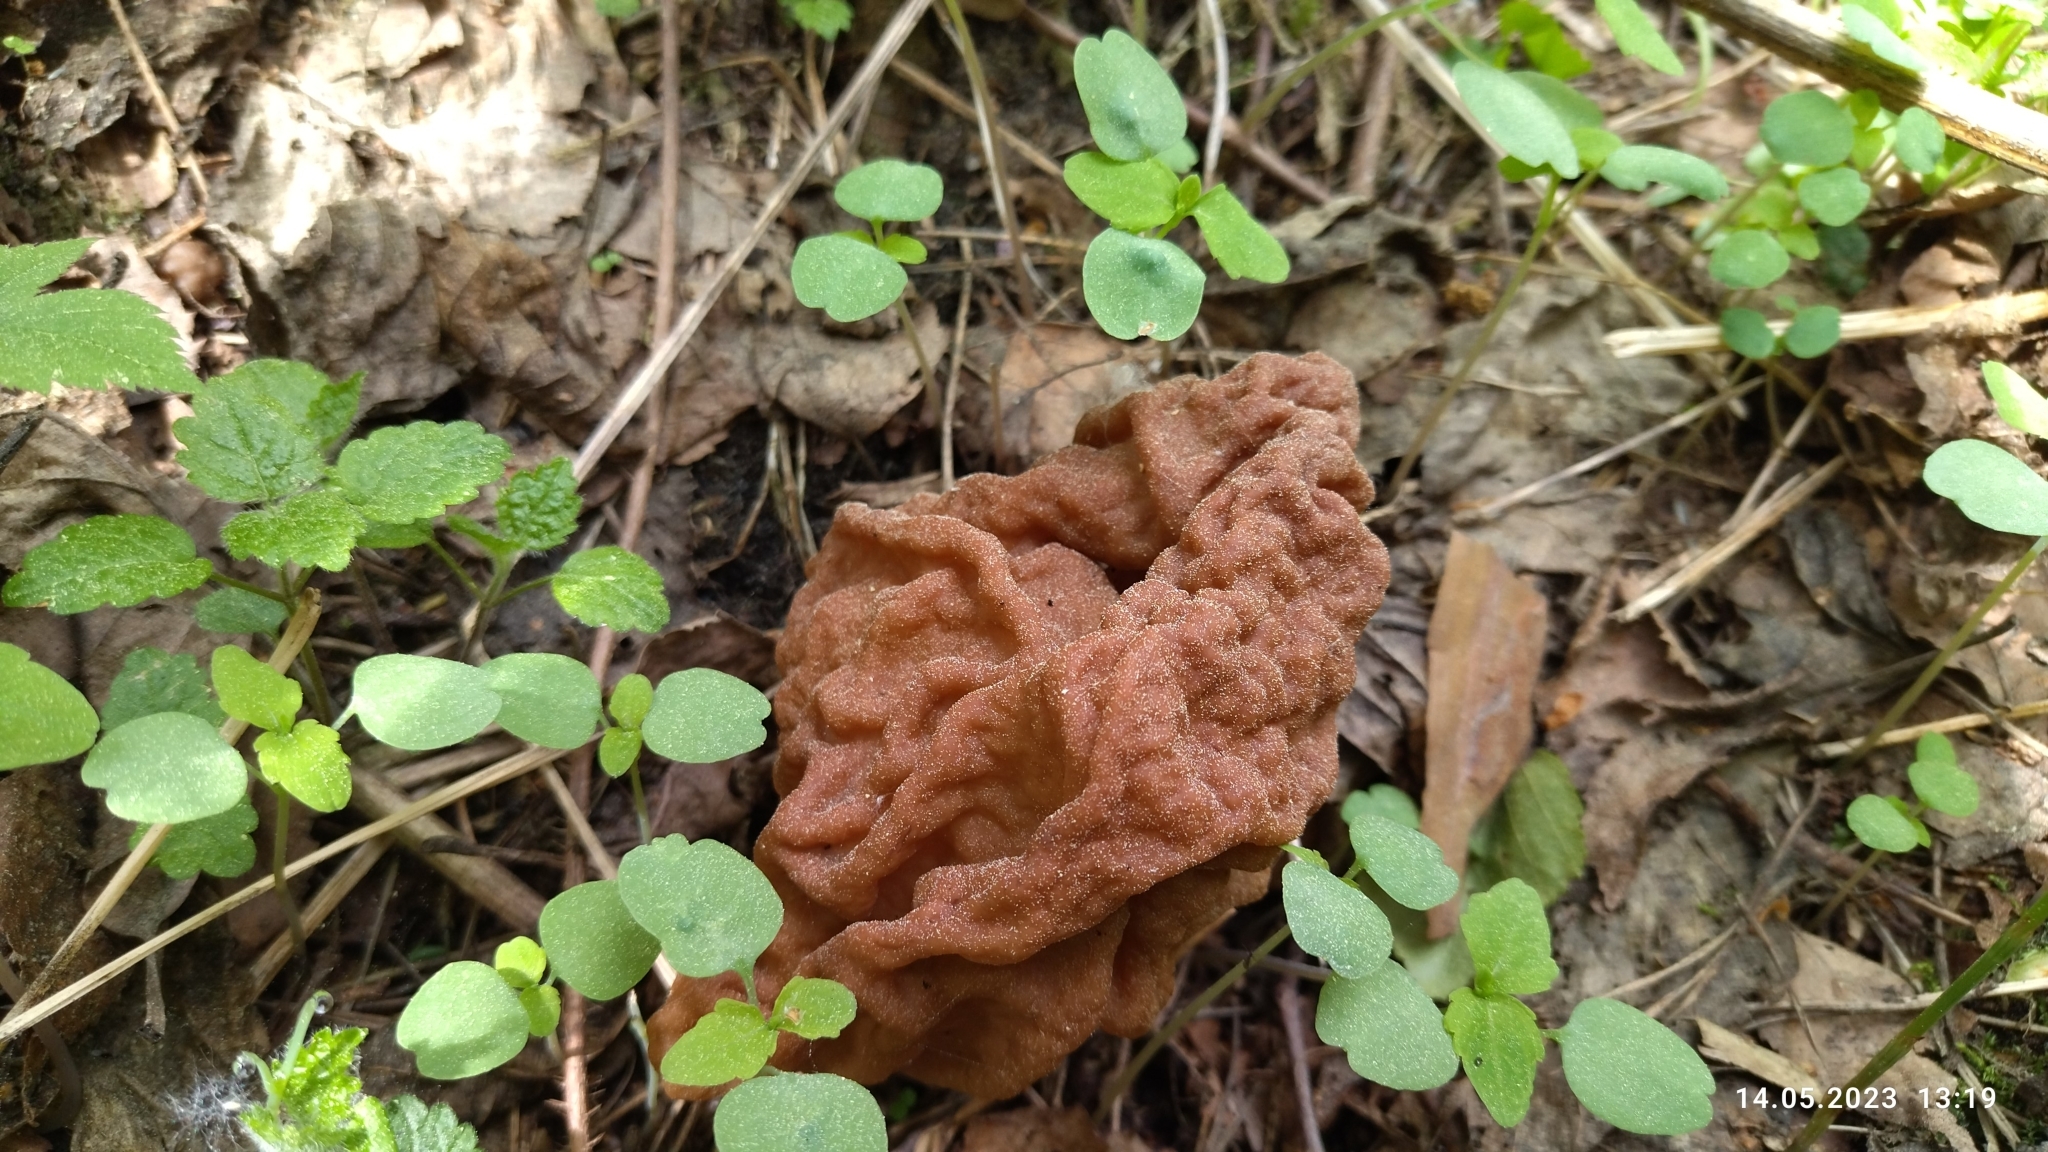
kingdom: Fungi
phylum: Ascomycota
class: Pezizomycetes
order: Pezizales
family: Discinaceae
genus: Gyromitra
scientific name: Gyromitra gigas
